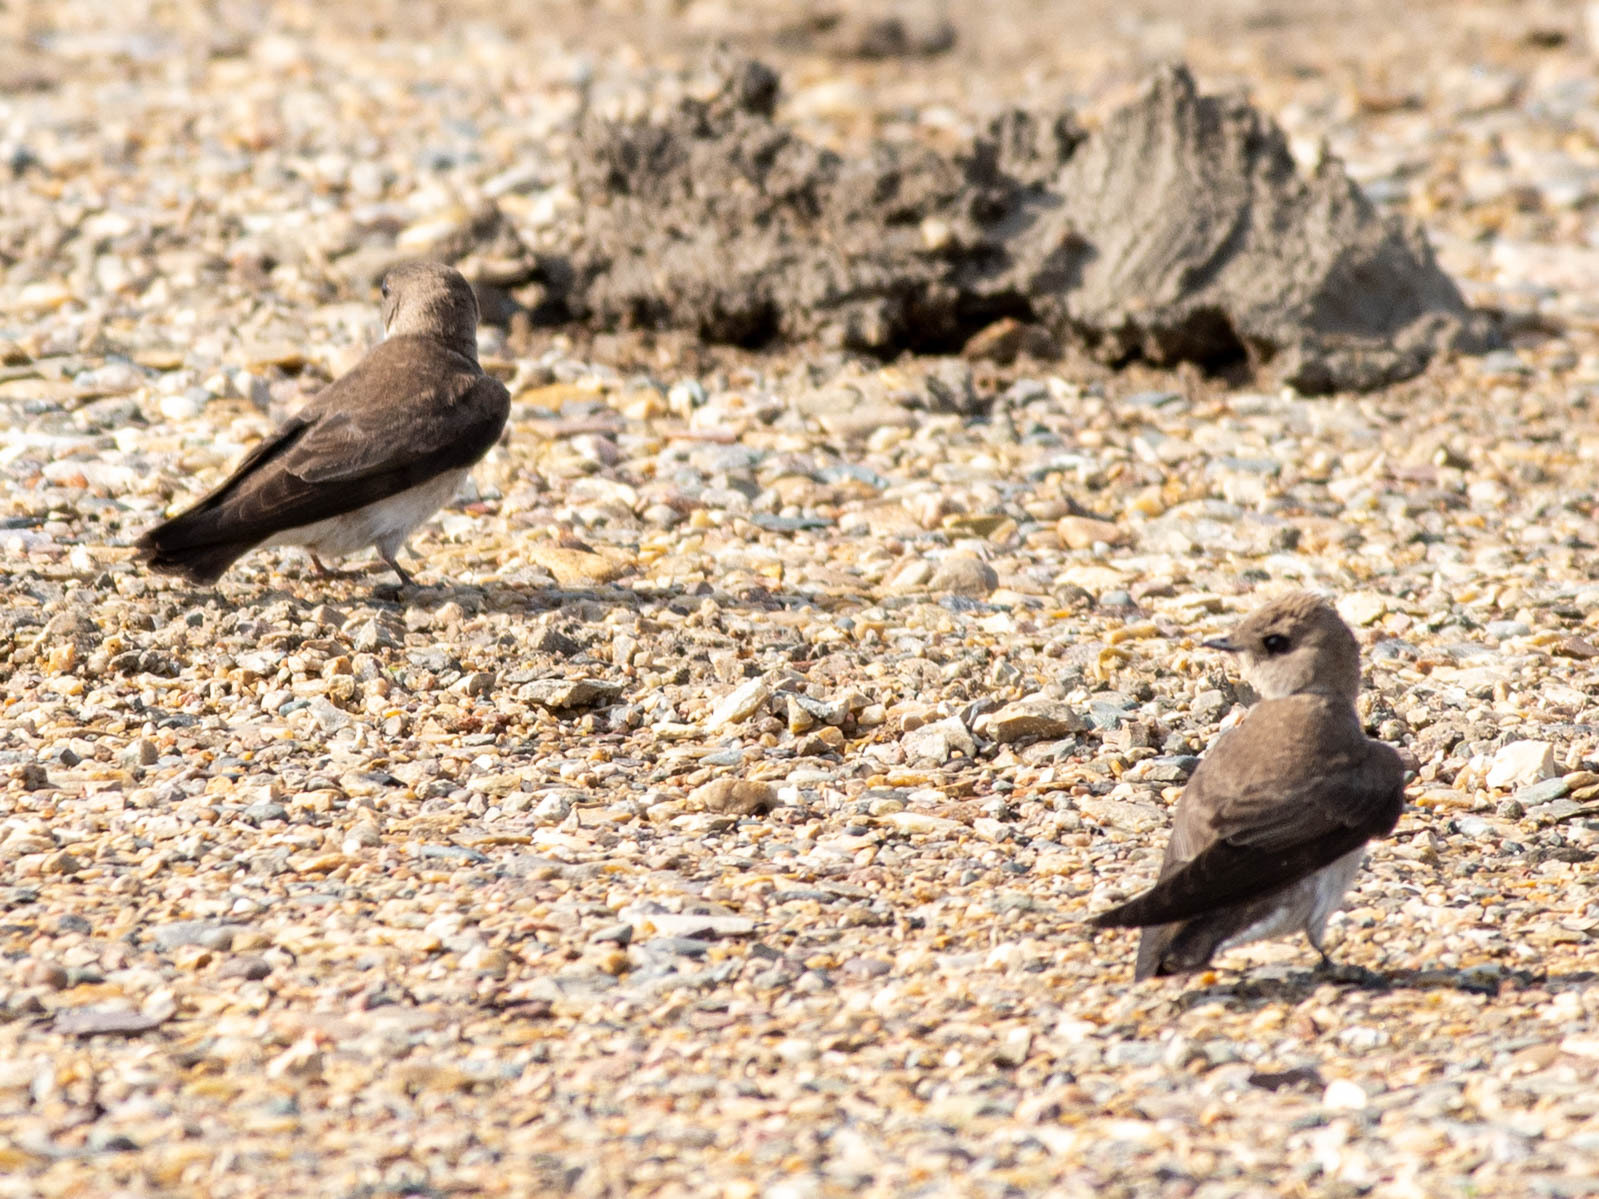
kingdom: Animalia
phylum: Chordata
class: Aves
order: Passeriformes
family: Hirundinidae
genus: Stelgidopteryx
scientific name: Stelgidopteryx serripennis
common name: Northern rough-winged swallow
